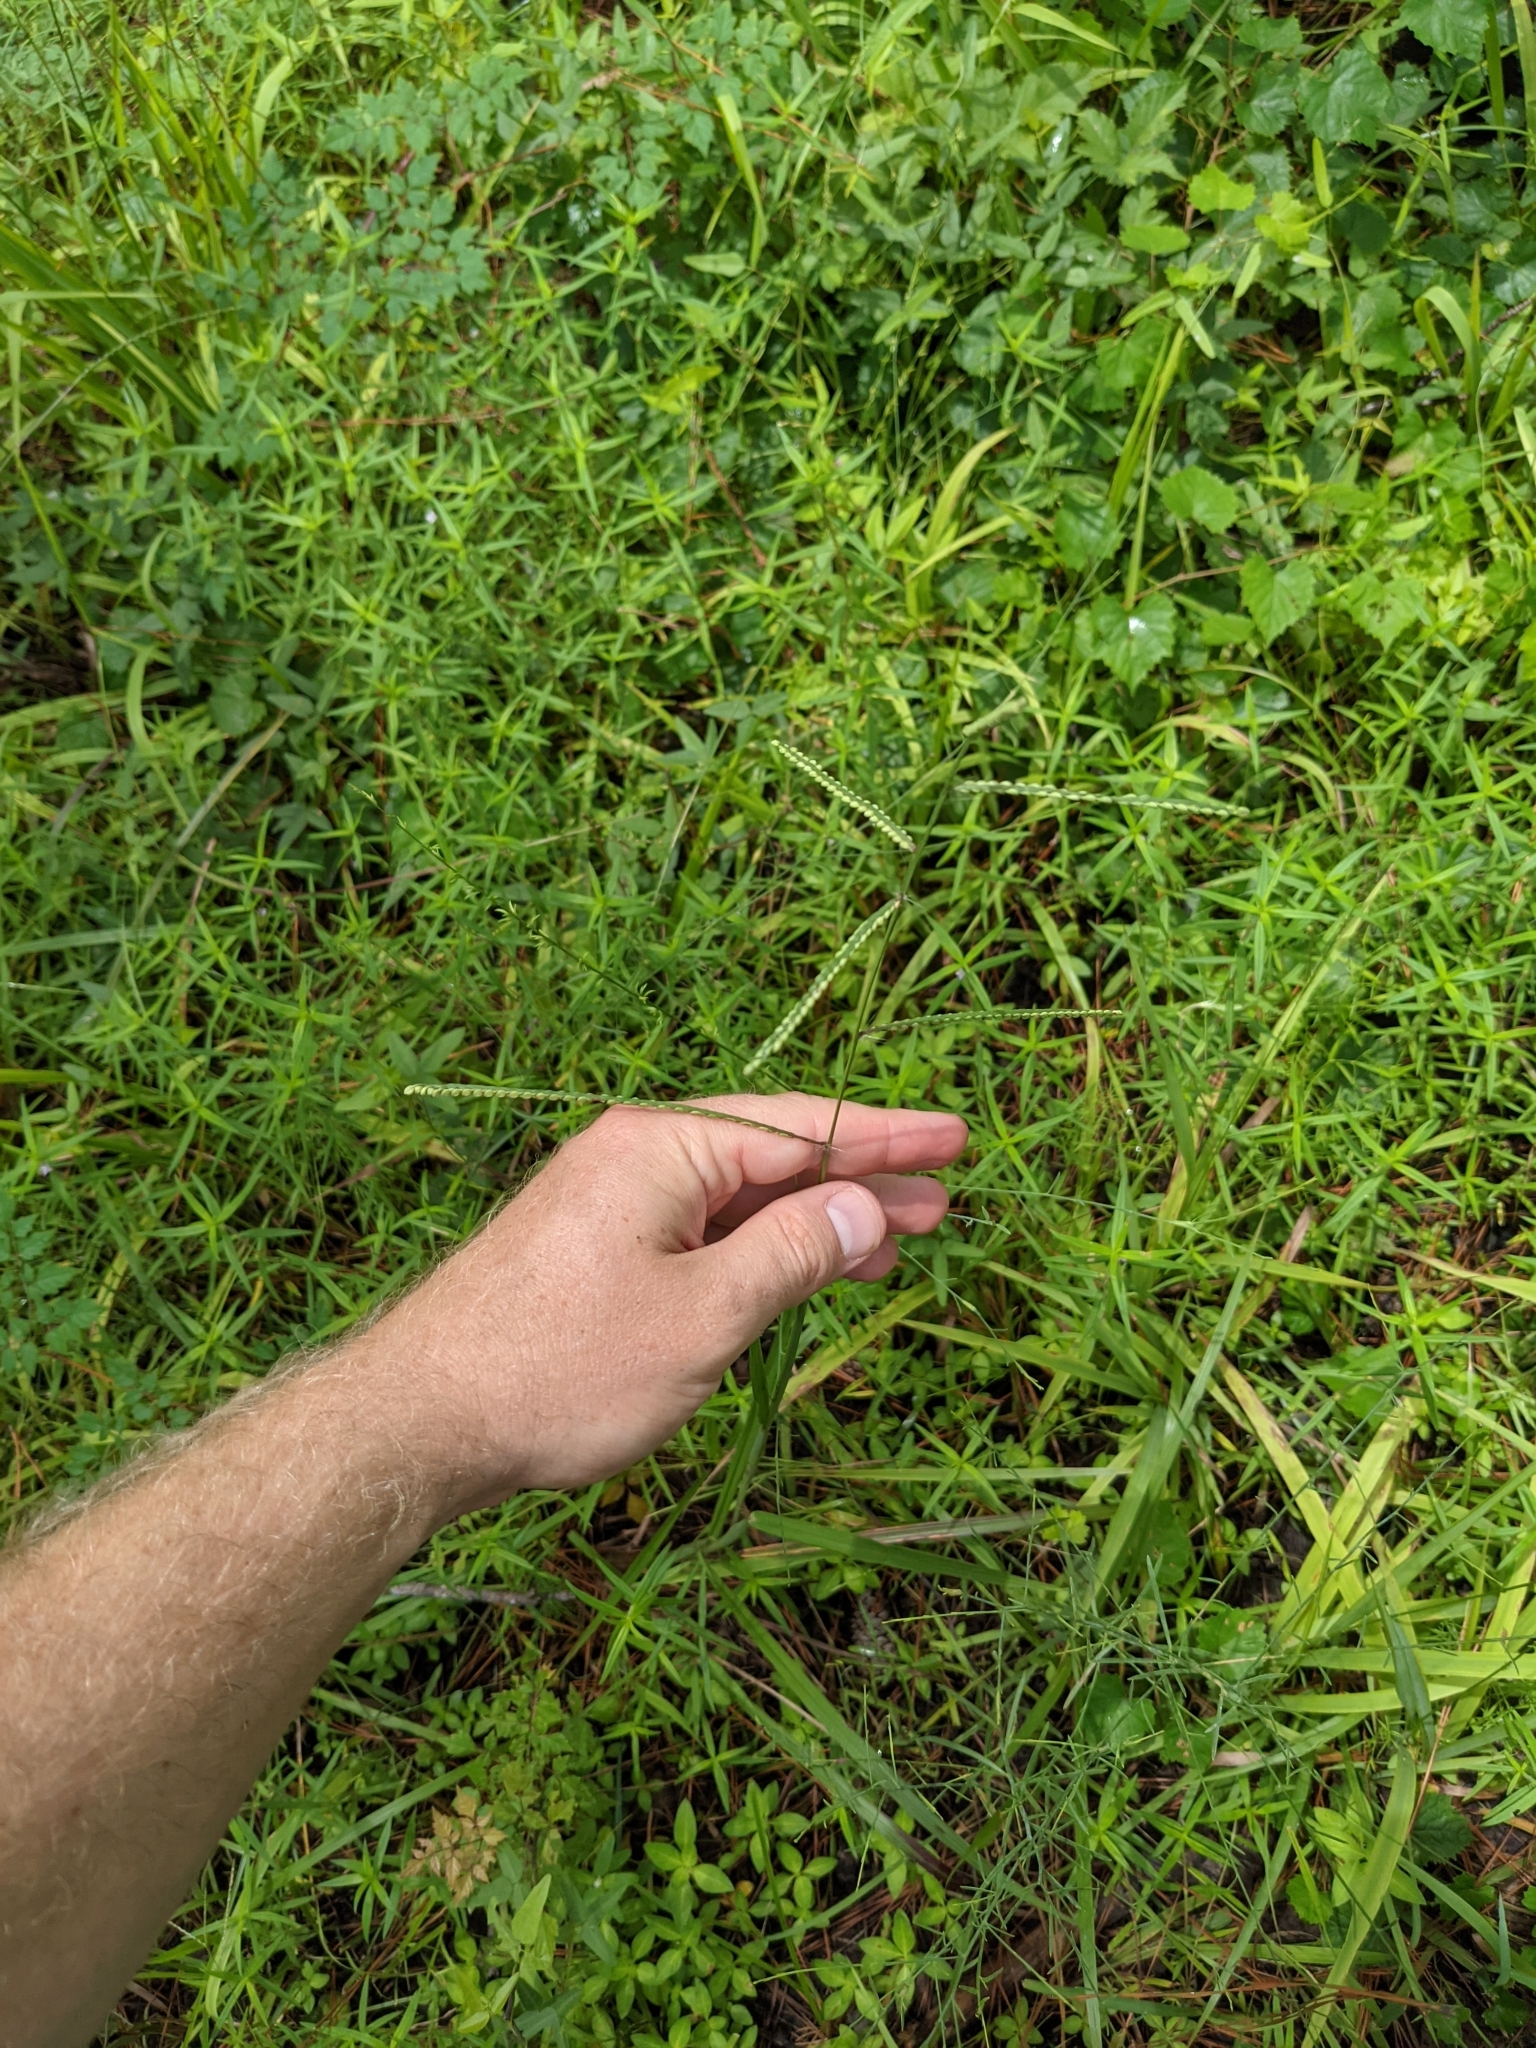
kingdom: Plantae
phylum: Tracheophyta
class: Liliopsida
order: Poales
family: Poaceae
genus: Paspalum
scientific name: Paspalum laeve
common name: Field paspalum
